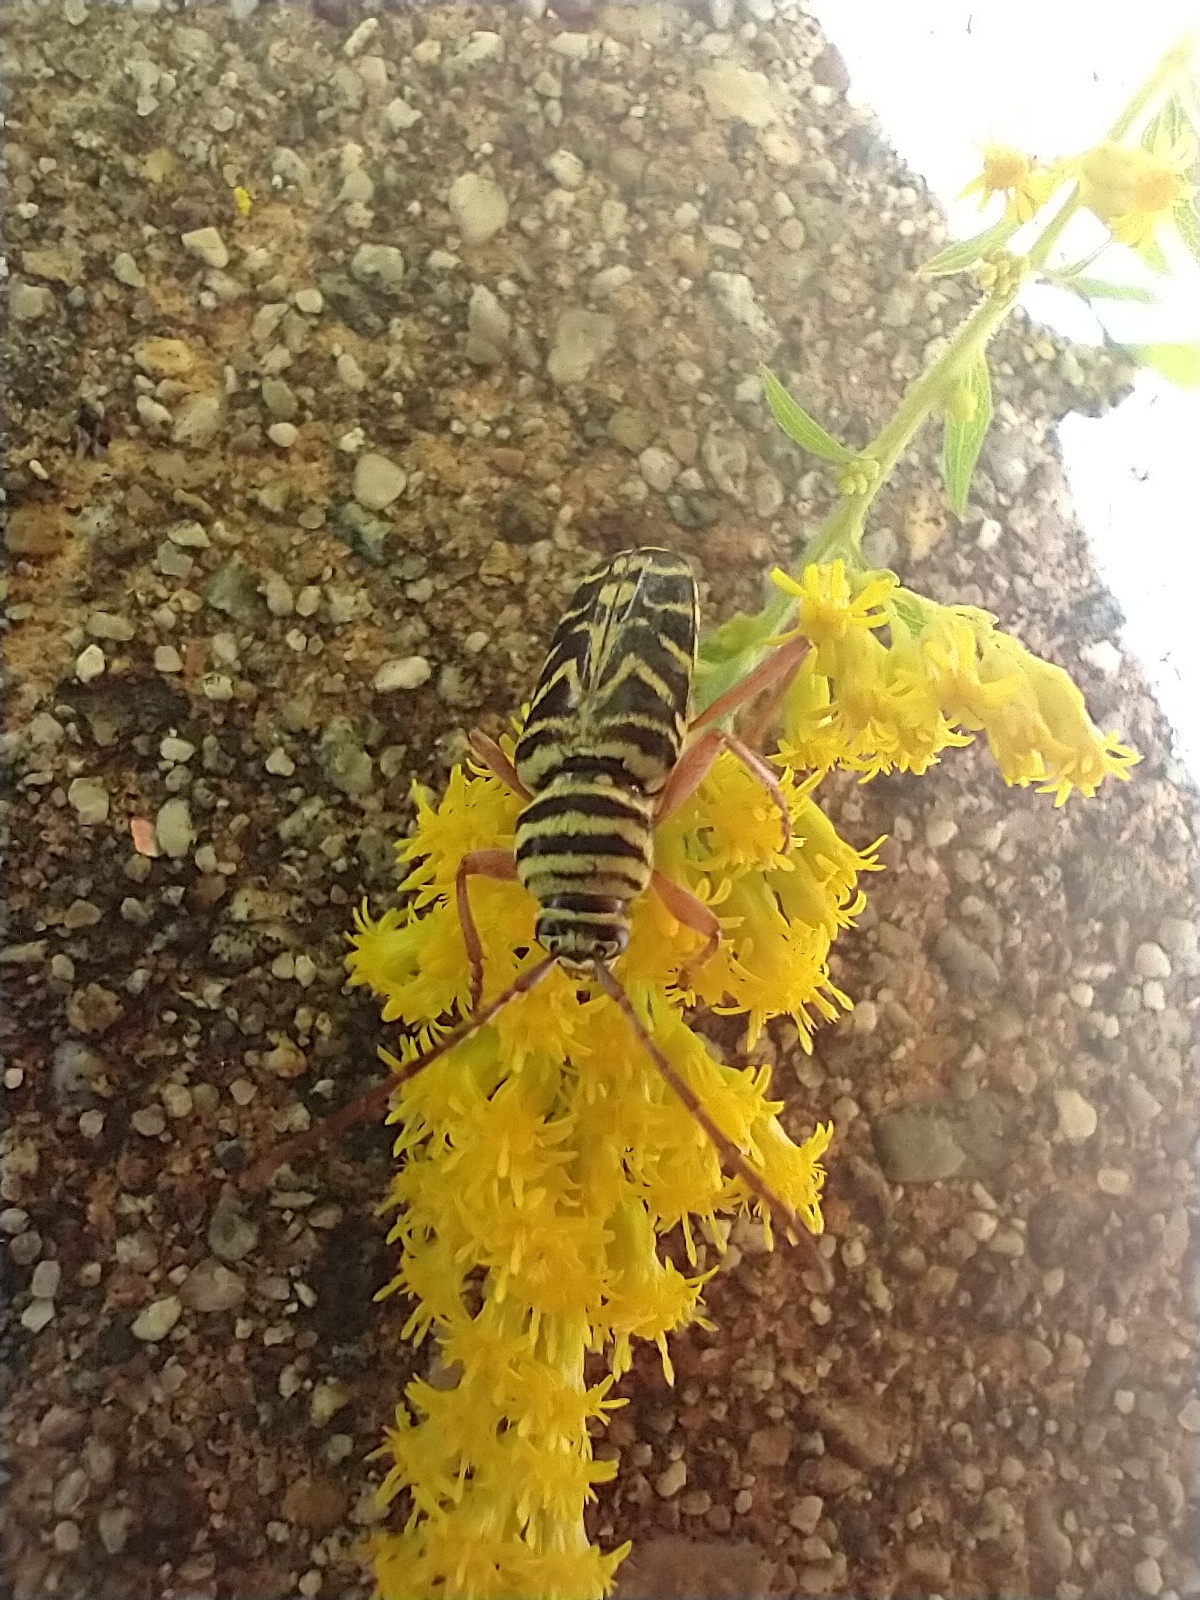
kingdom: Animalia
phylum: Arthropoda
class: Insecta
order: Coleoptera
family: Cerambycidae
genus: Megacyllene
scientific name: Megacyllene robiniae
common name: Locust borer
